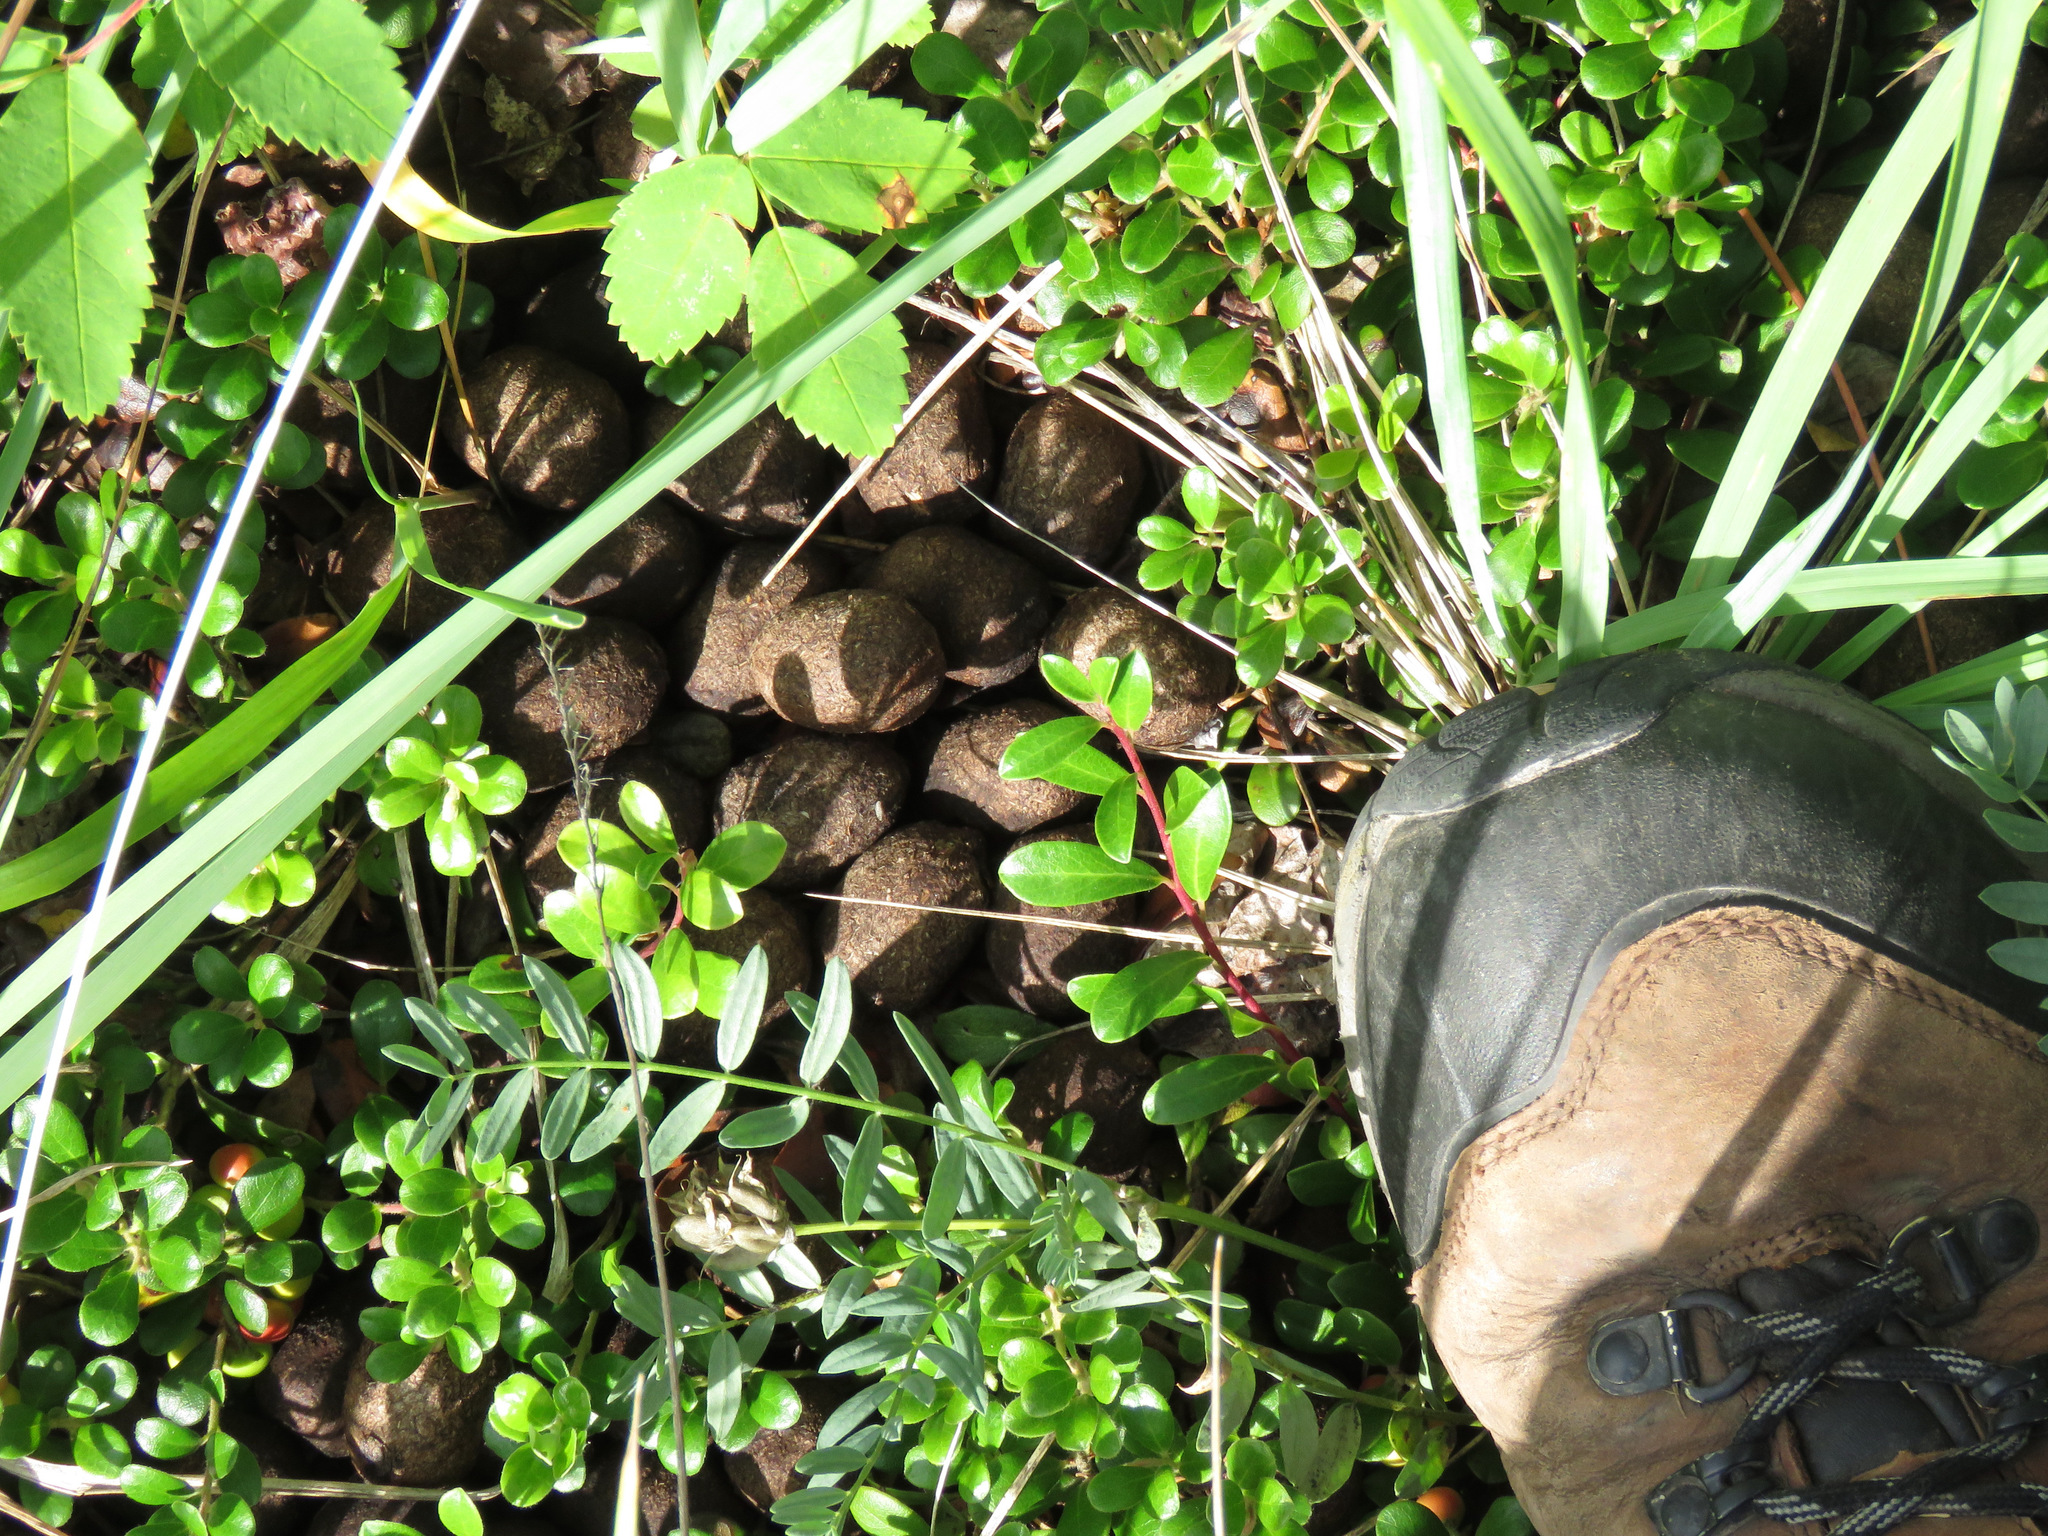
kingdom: Animalia
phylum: Chordata
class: Mammalia
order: Artiodactyla
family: Cervidae
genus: Alces
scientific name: Alces alces
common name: Moose
